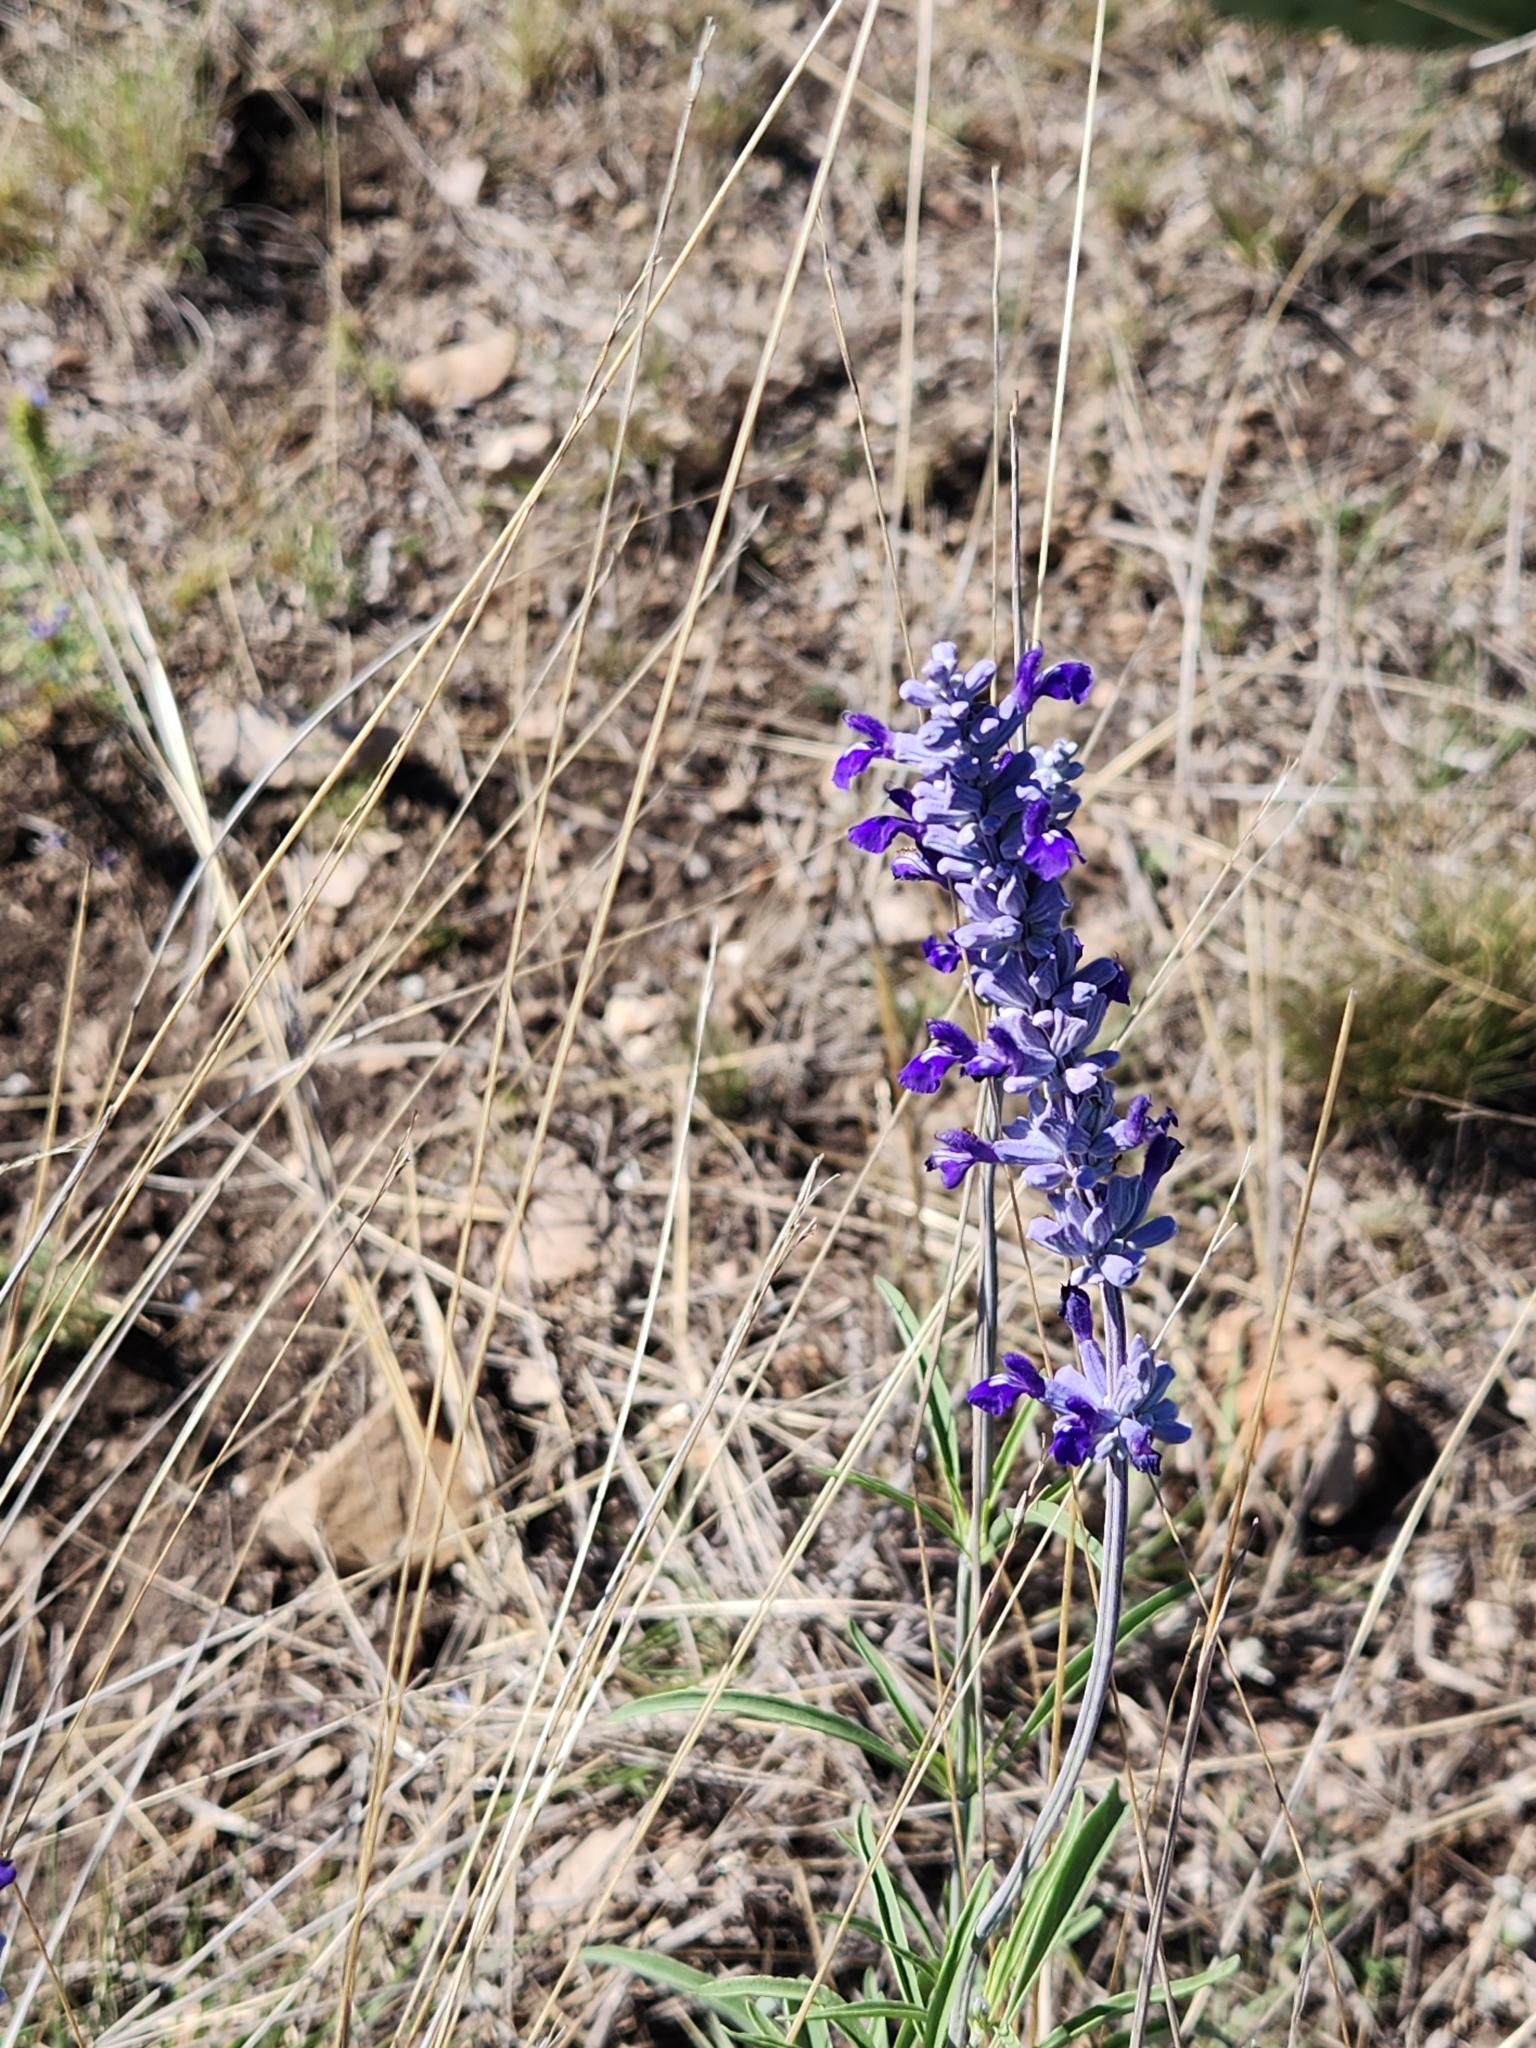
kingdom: Plantae
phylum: Tracheophyta
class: Magnoliopsida
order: Lamiales
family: Lamiaceae
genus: Salvia
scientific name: Salvia farinacea
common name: Mealy sage
